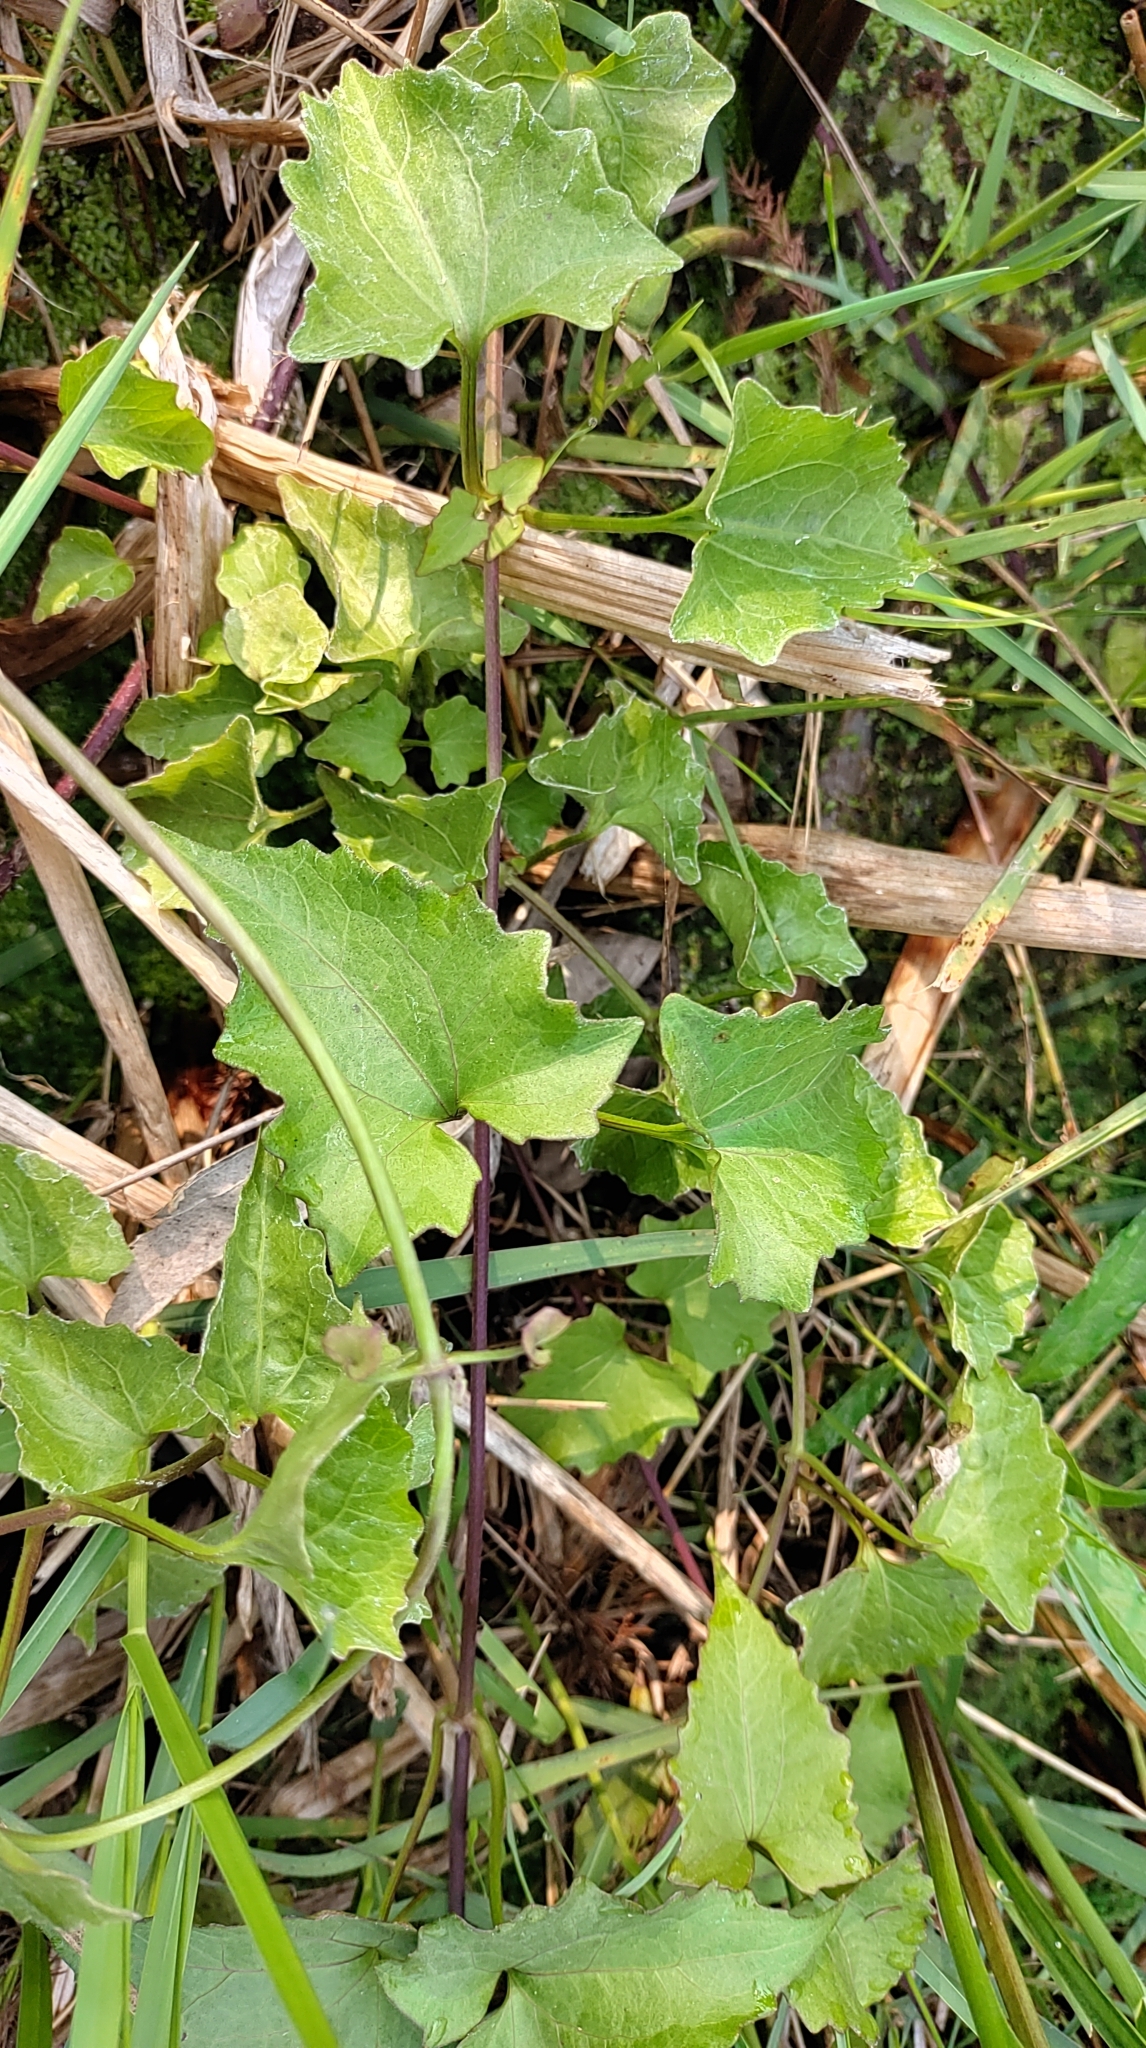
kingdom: Plantae
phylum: Tracheophyta
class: Magnoliopsida
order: Asterales
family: Asteraceae
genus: Mikania
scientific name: Mikania micrantha
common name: Mile-a-minute
